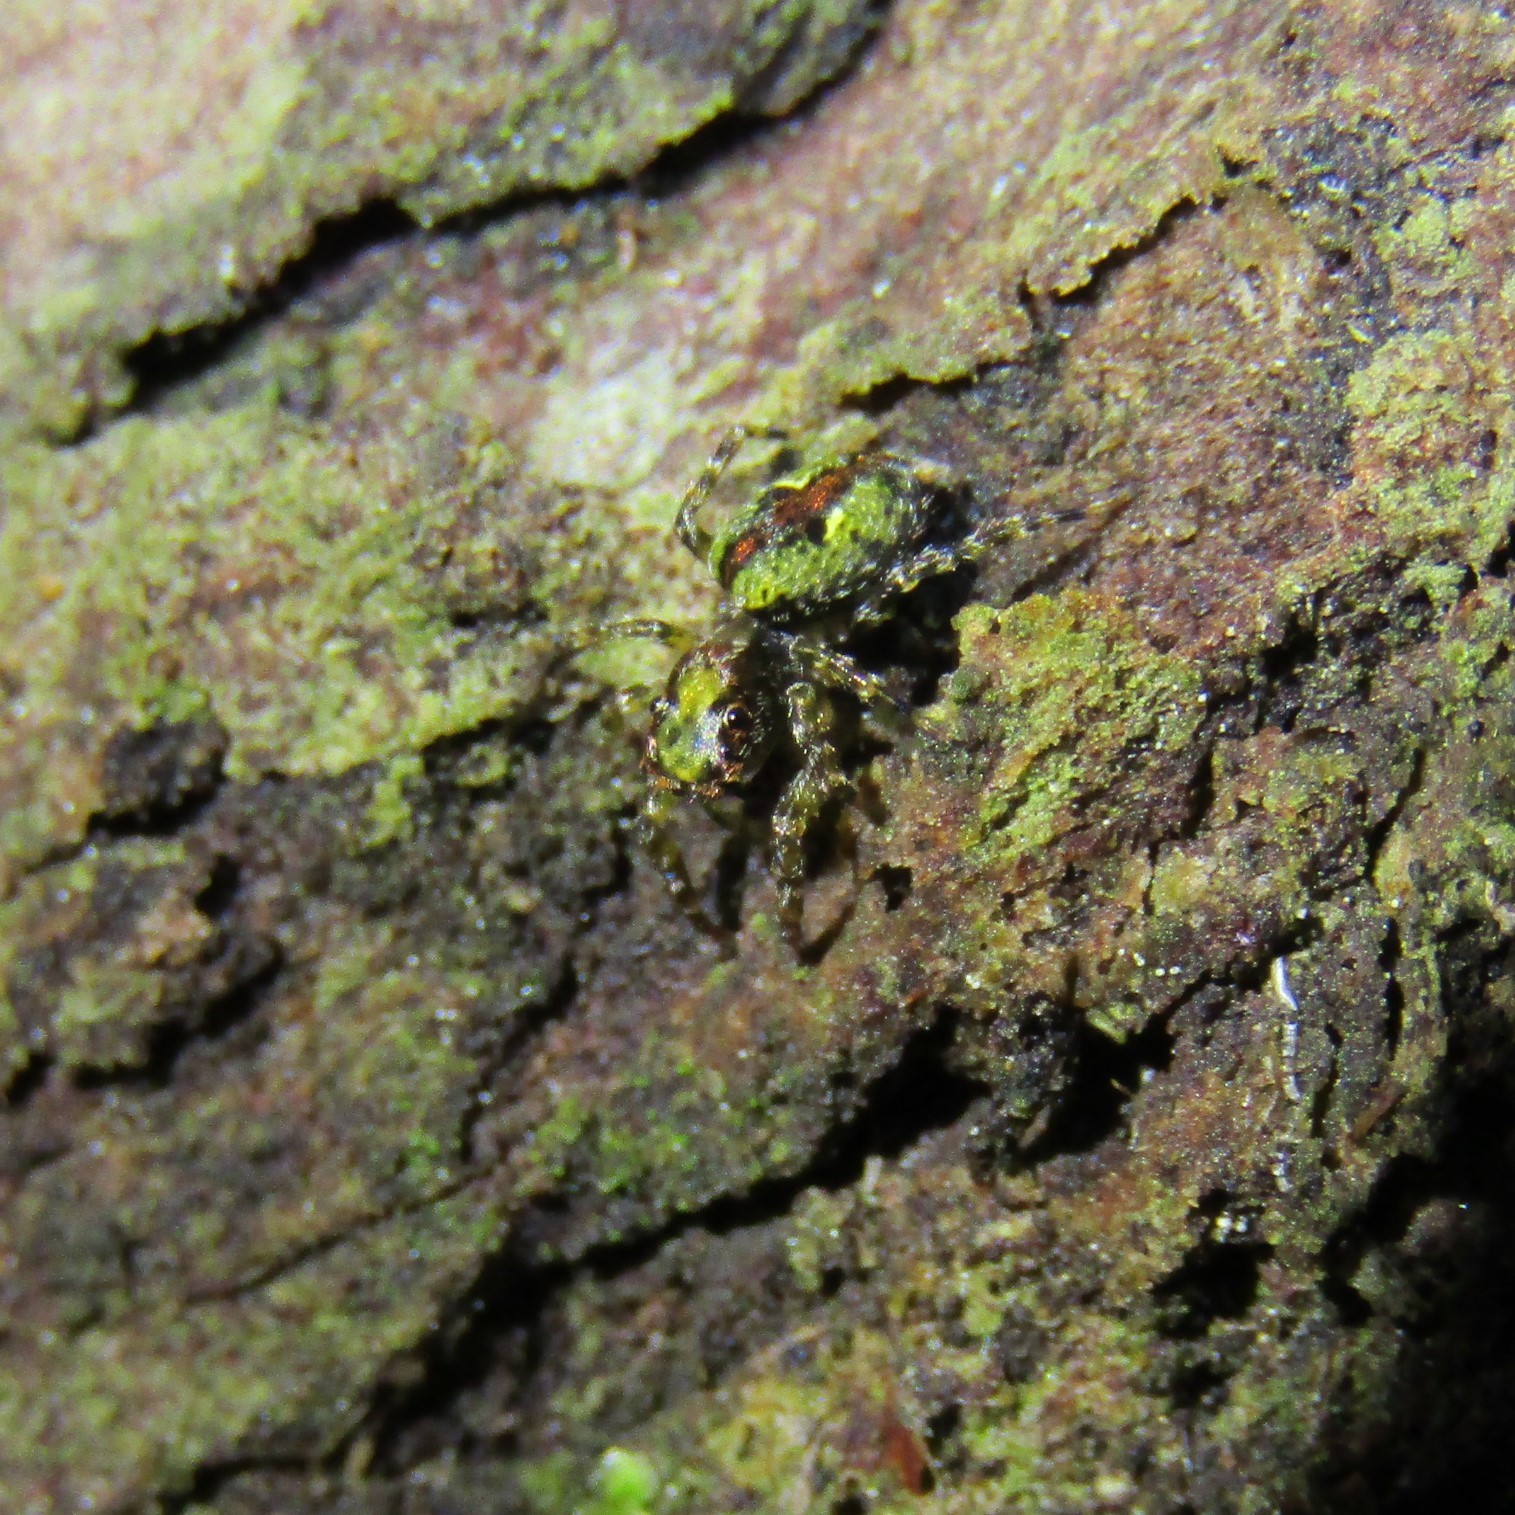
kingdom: Animalia
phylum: Arthropoda
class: Arachnida
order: Araneae
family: Salticidae
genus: Hinewaia
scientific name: Hinewaia embolica
